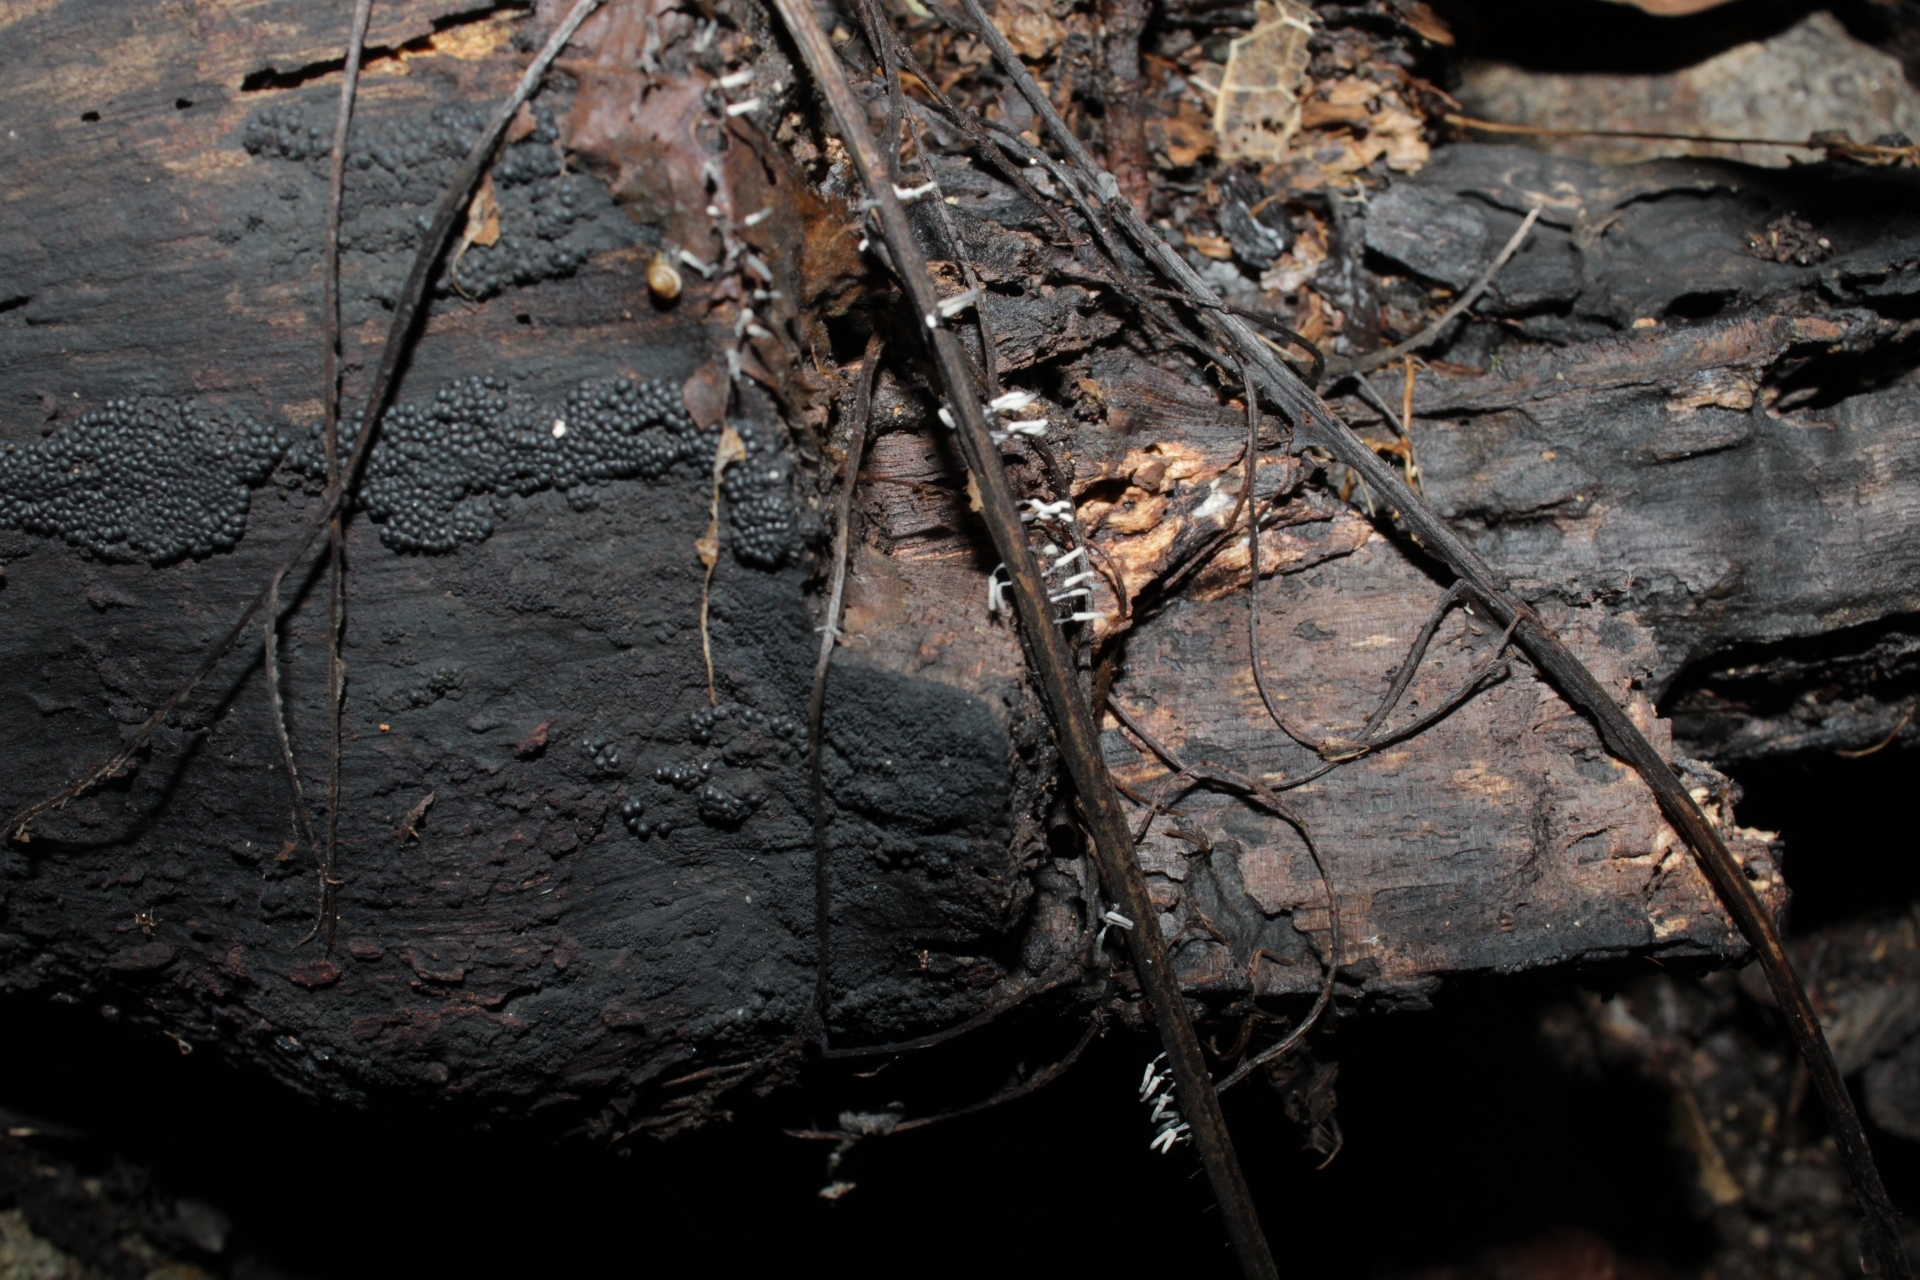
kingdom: Protozoa
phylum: Mycetozoa
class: Myxomycetes
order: Trichiales
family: Arcyriaceae
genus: Arcyria
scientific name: Arcyria cinerea
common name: White carnival candy slime mold
